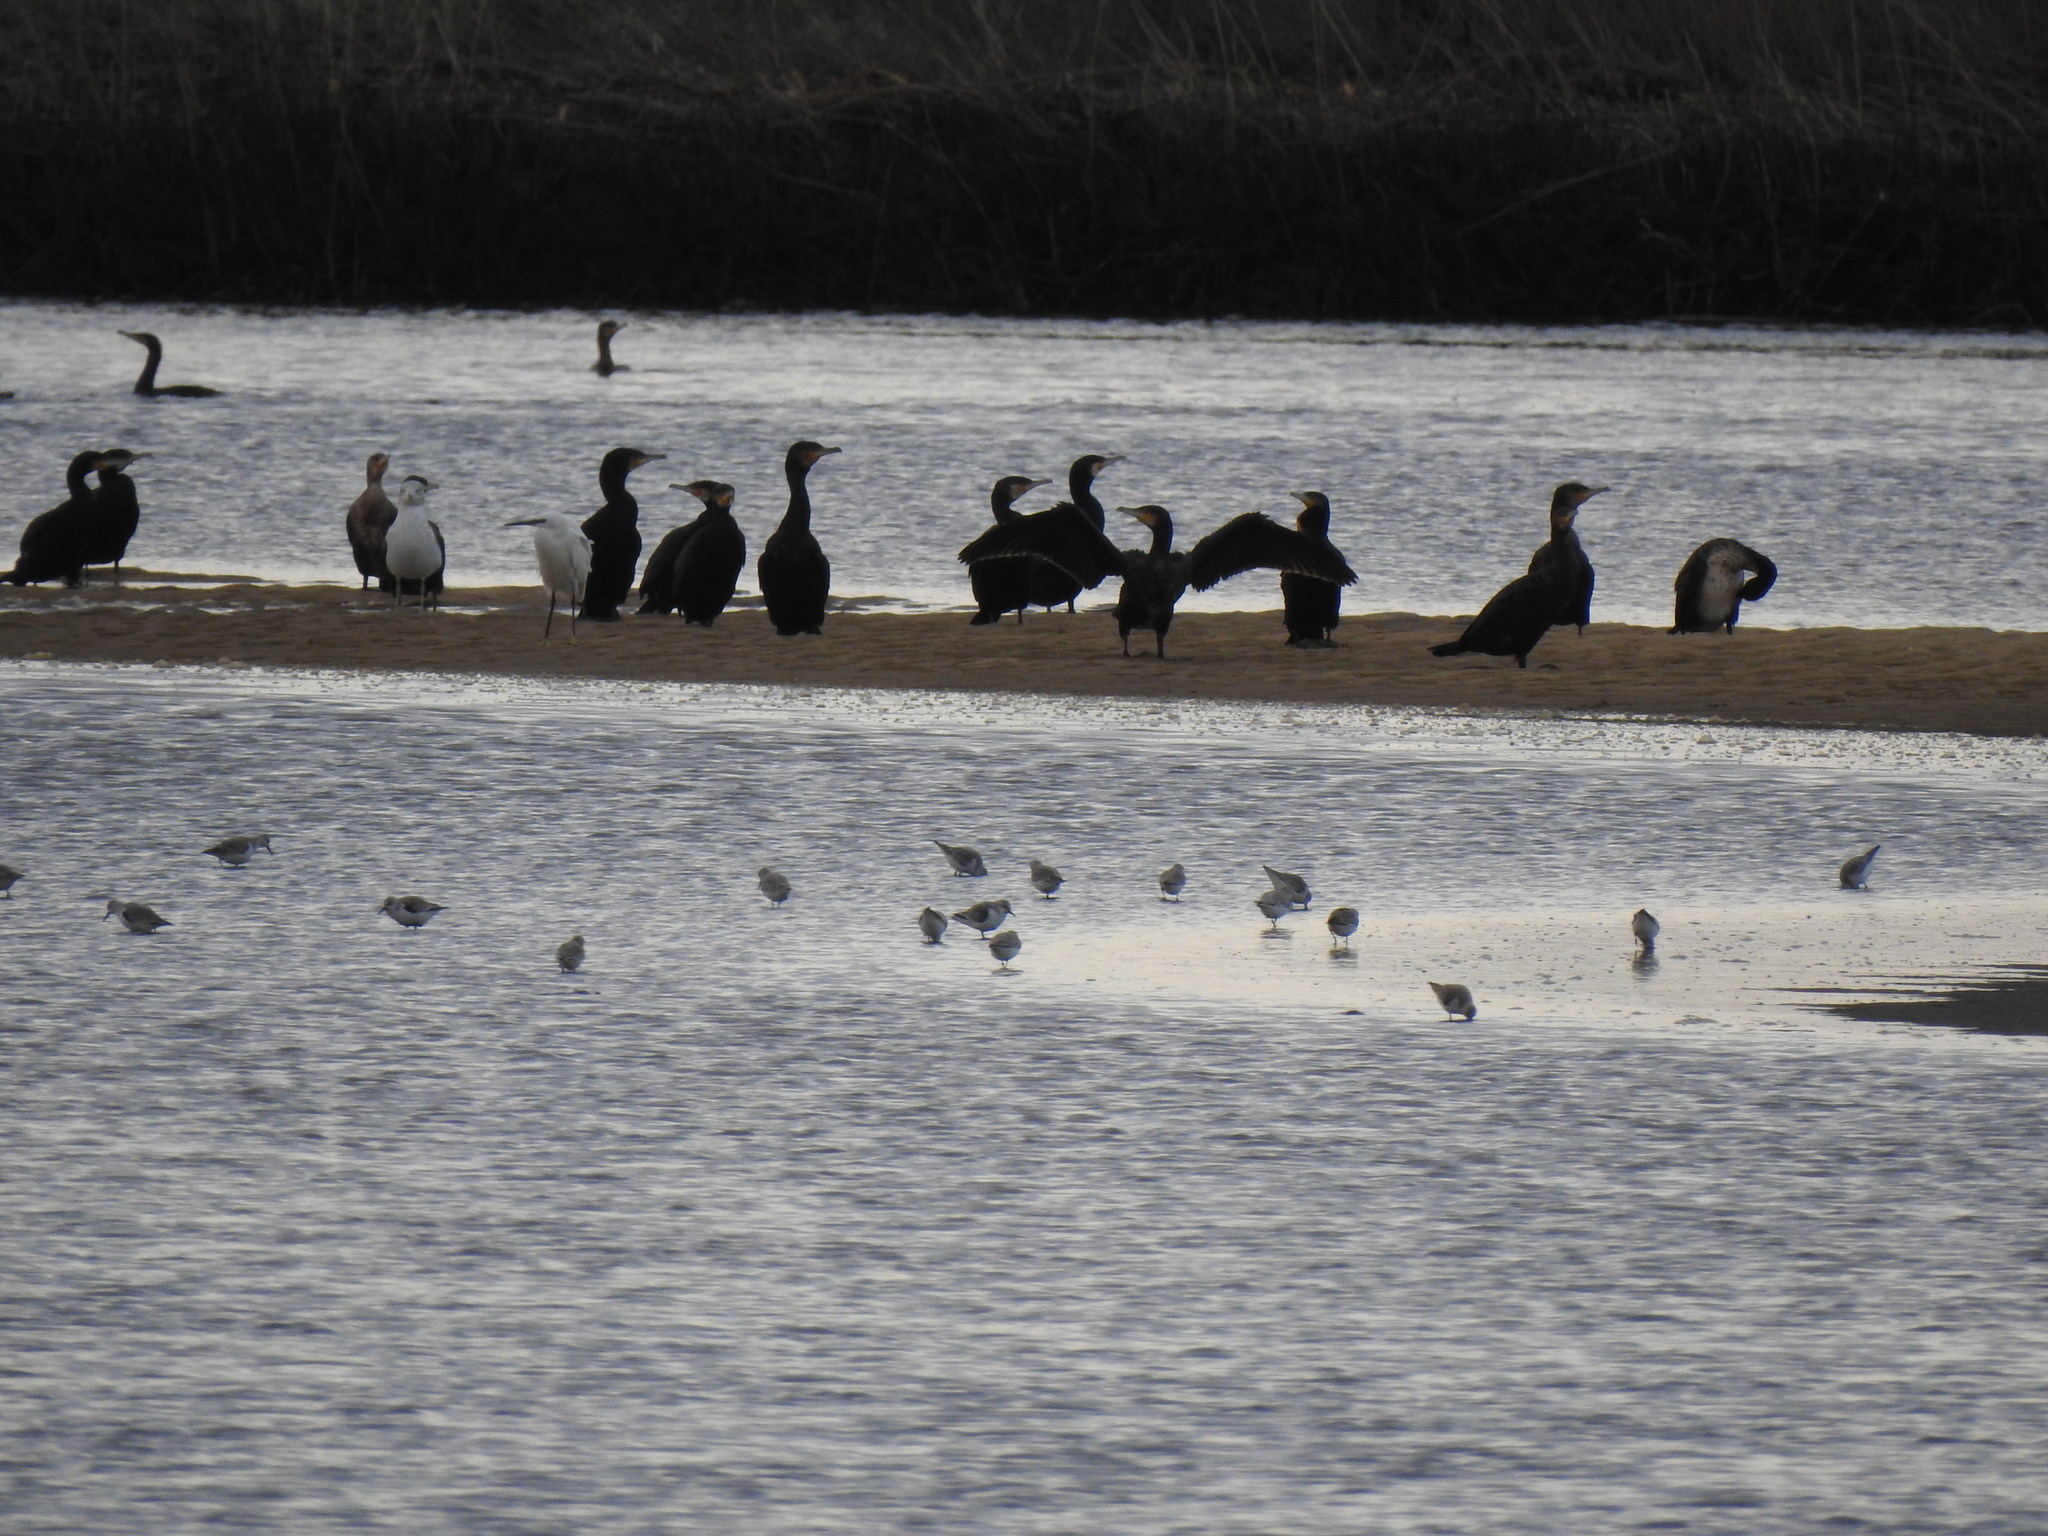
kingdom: Animalia
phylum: Chordata
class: Aves
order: Charadriiformes
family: Scolopacidae
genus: Calidris
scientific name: Calidris alba
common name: Sanderling
